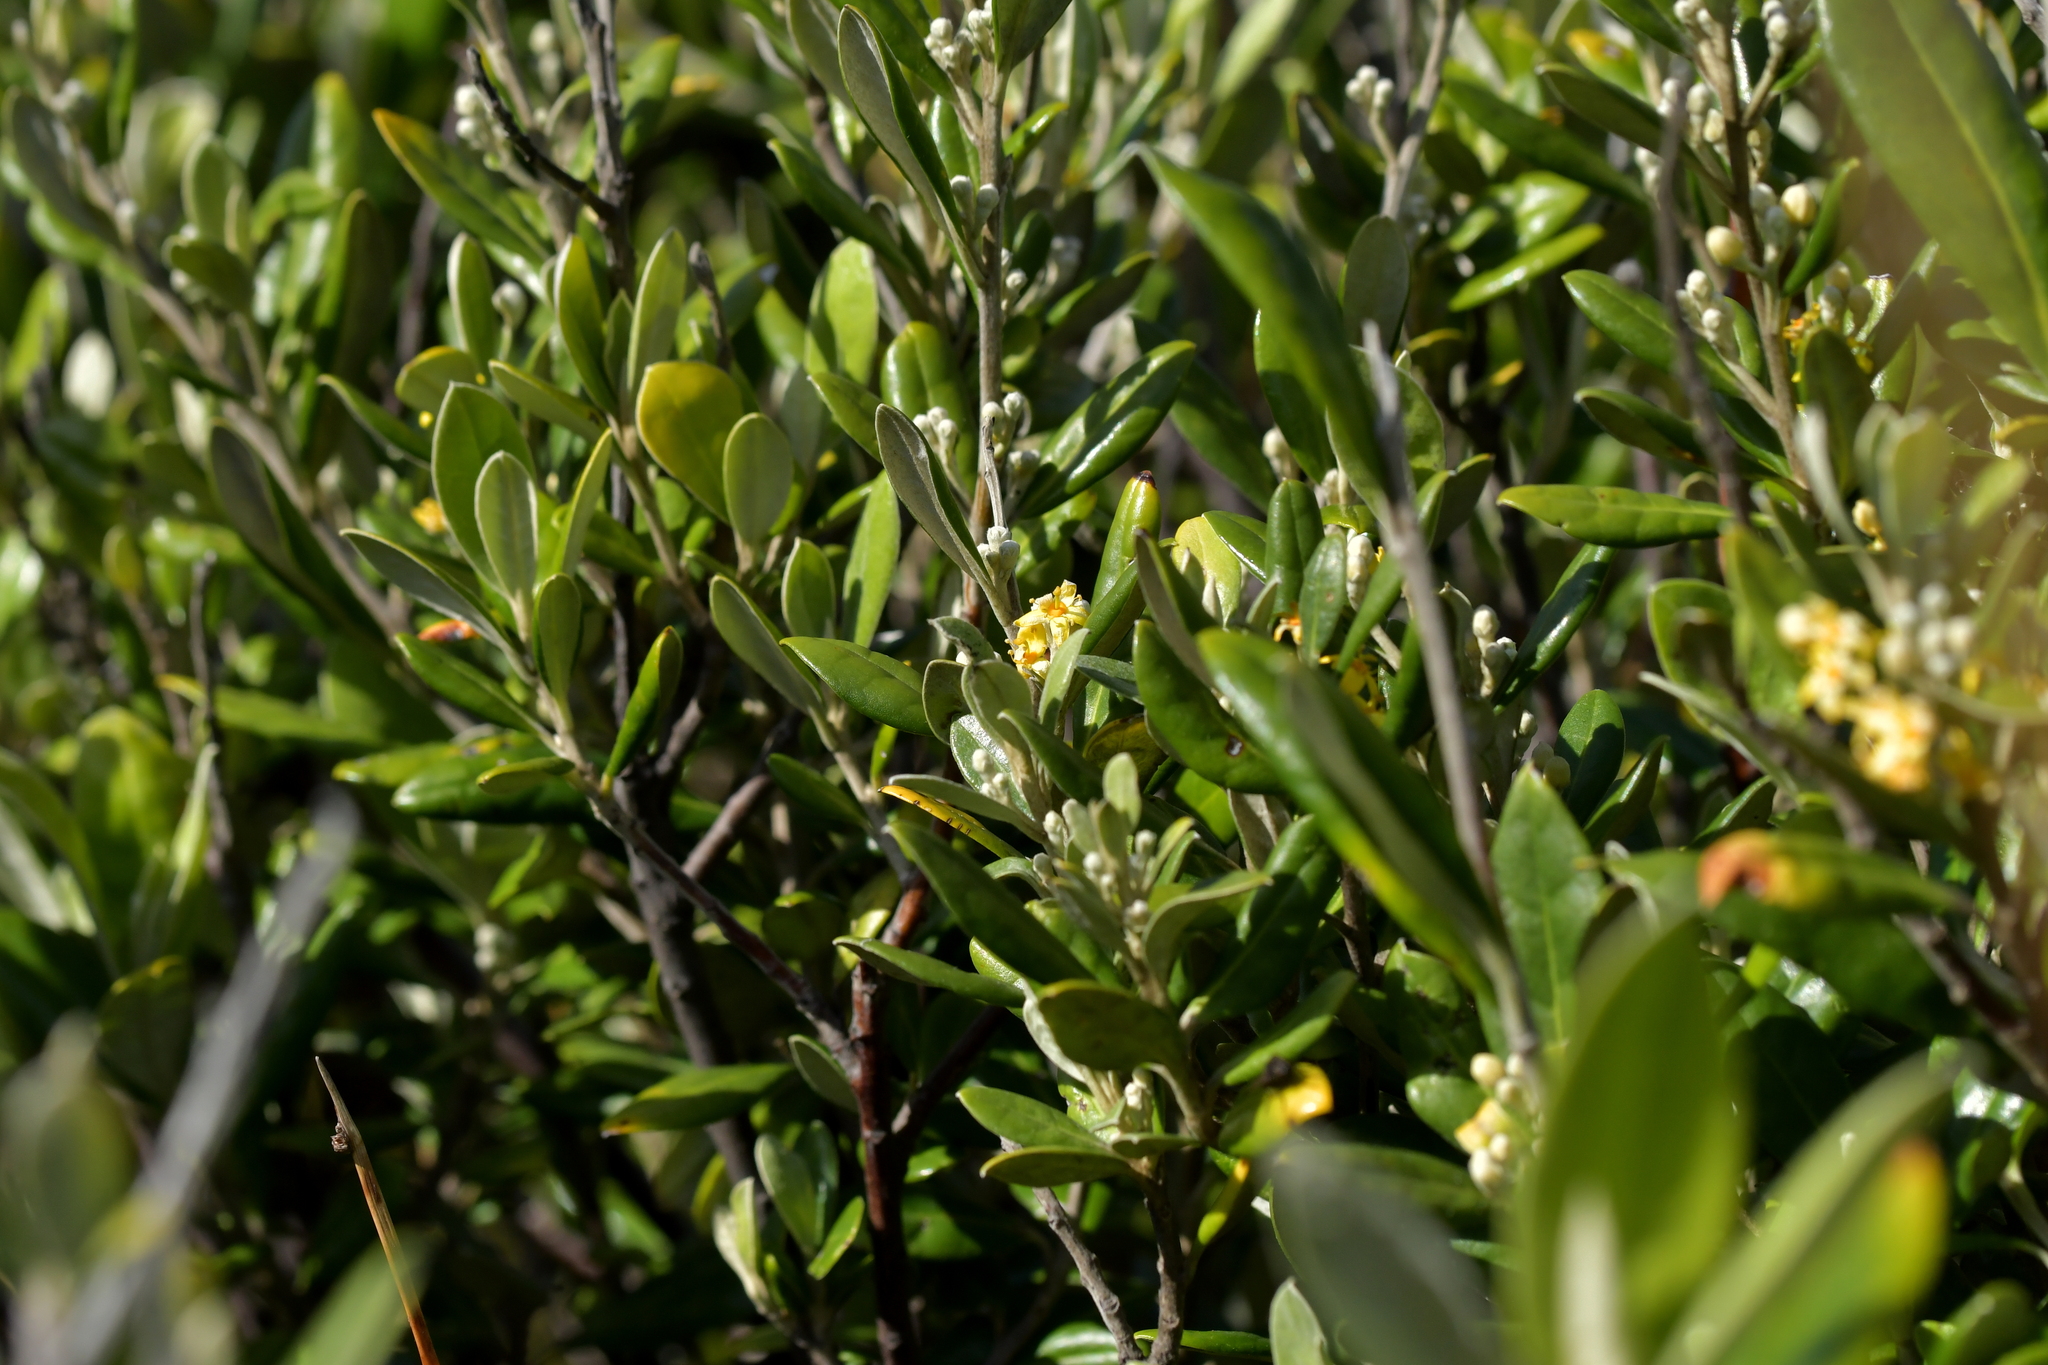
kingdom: Plantae
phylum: Tracheophyta
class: Magnoliopsida
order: Asterales
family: Argophyllaceae
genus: Corokia
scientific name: Corokia macrocarpa
